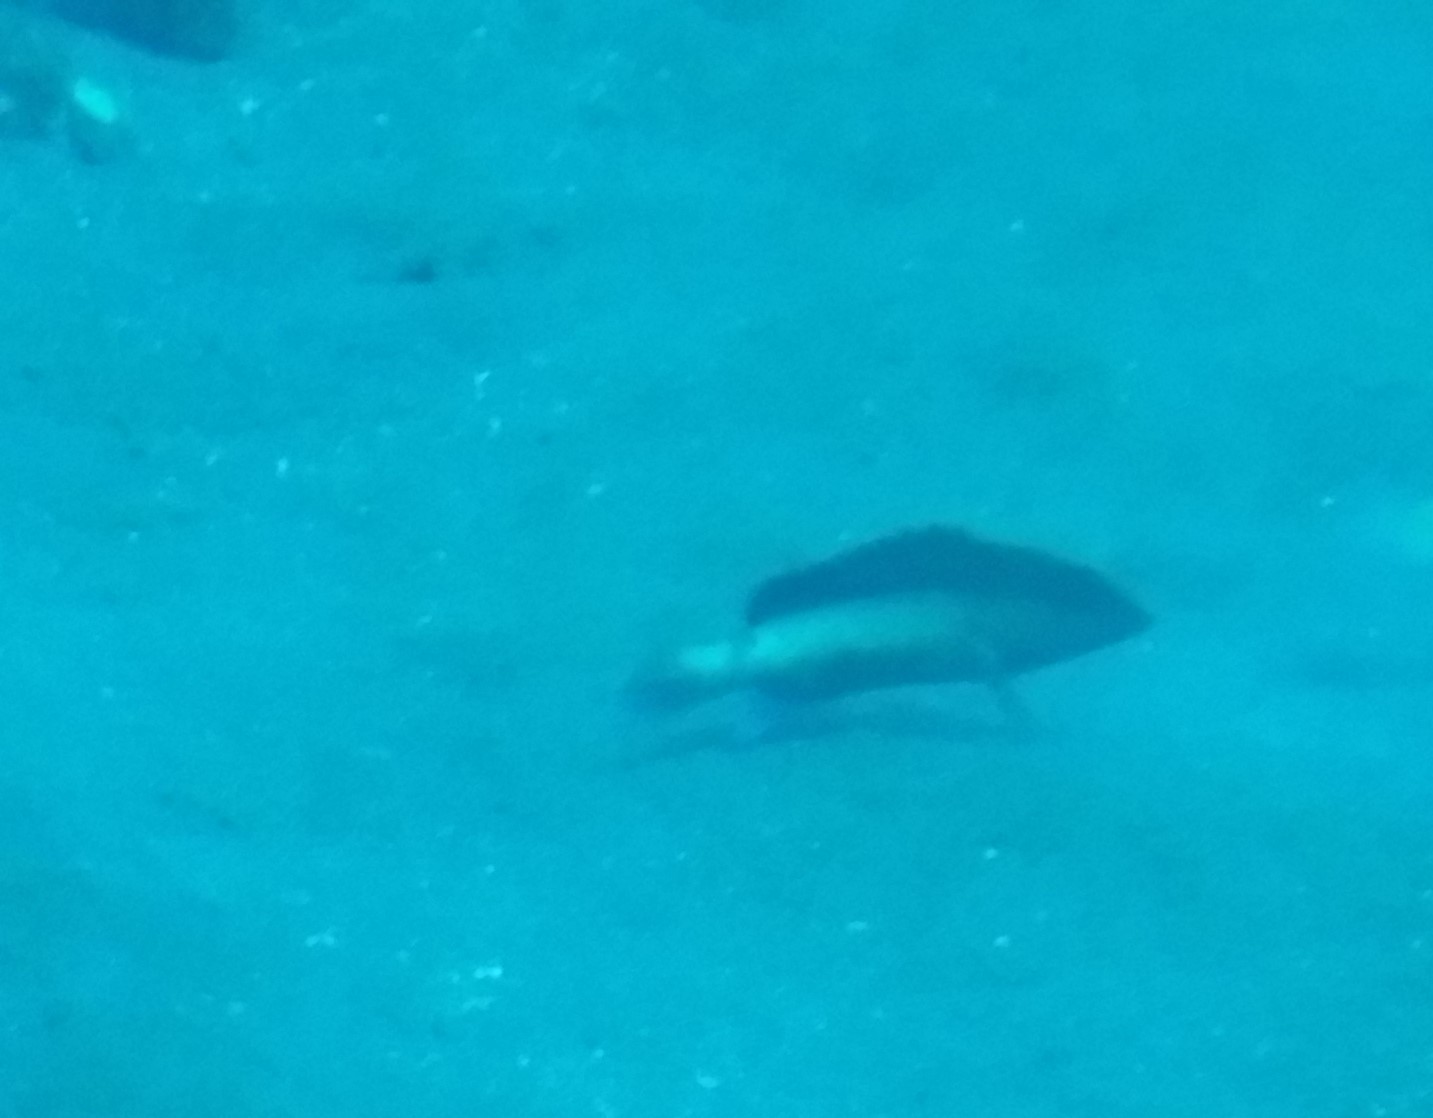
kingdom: Animalia
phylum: Chordata
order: Perciformes
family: Serranidae
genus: Cephalopholis
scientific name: Cephalopholis fulva
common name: Butterfish
